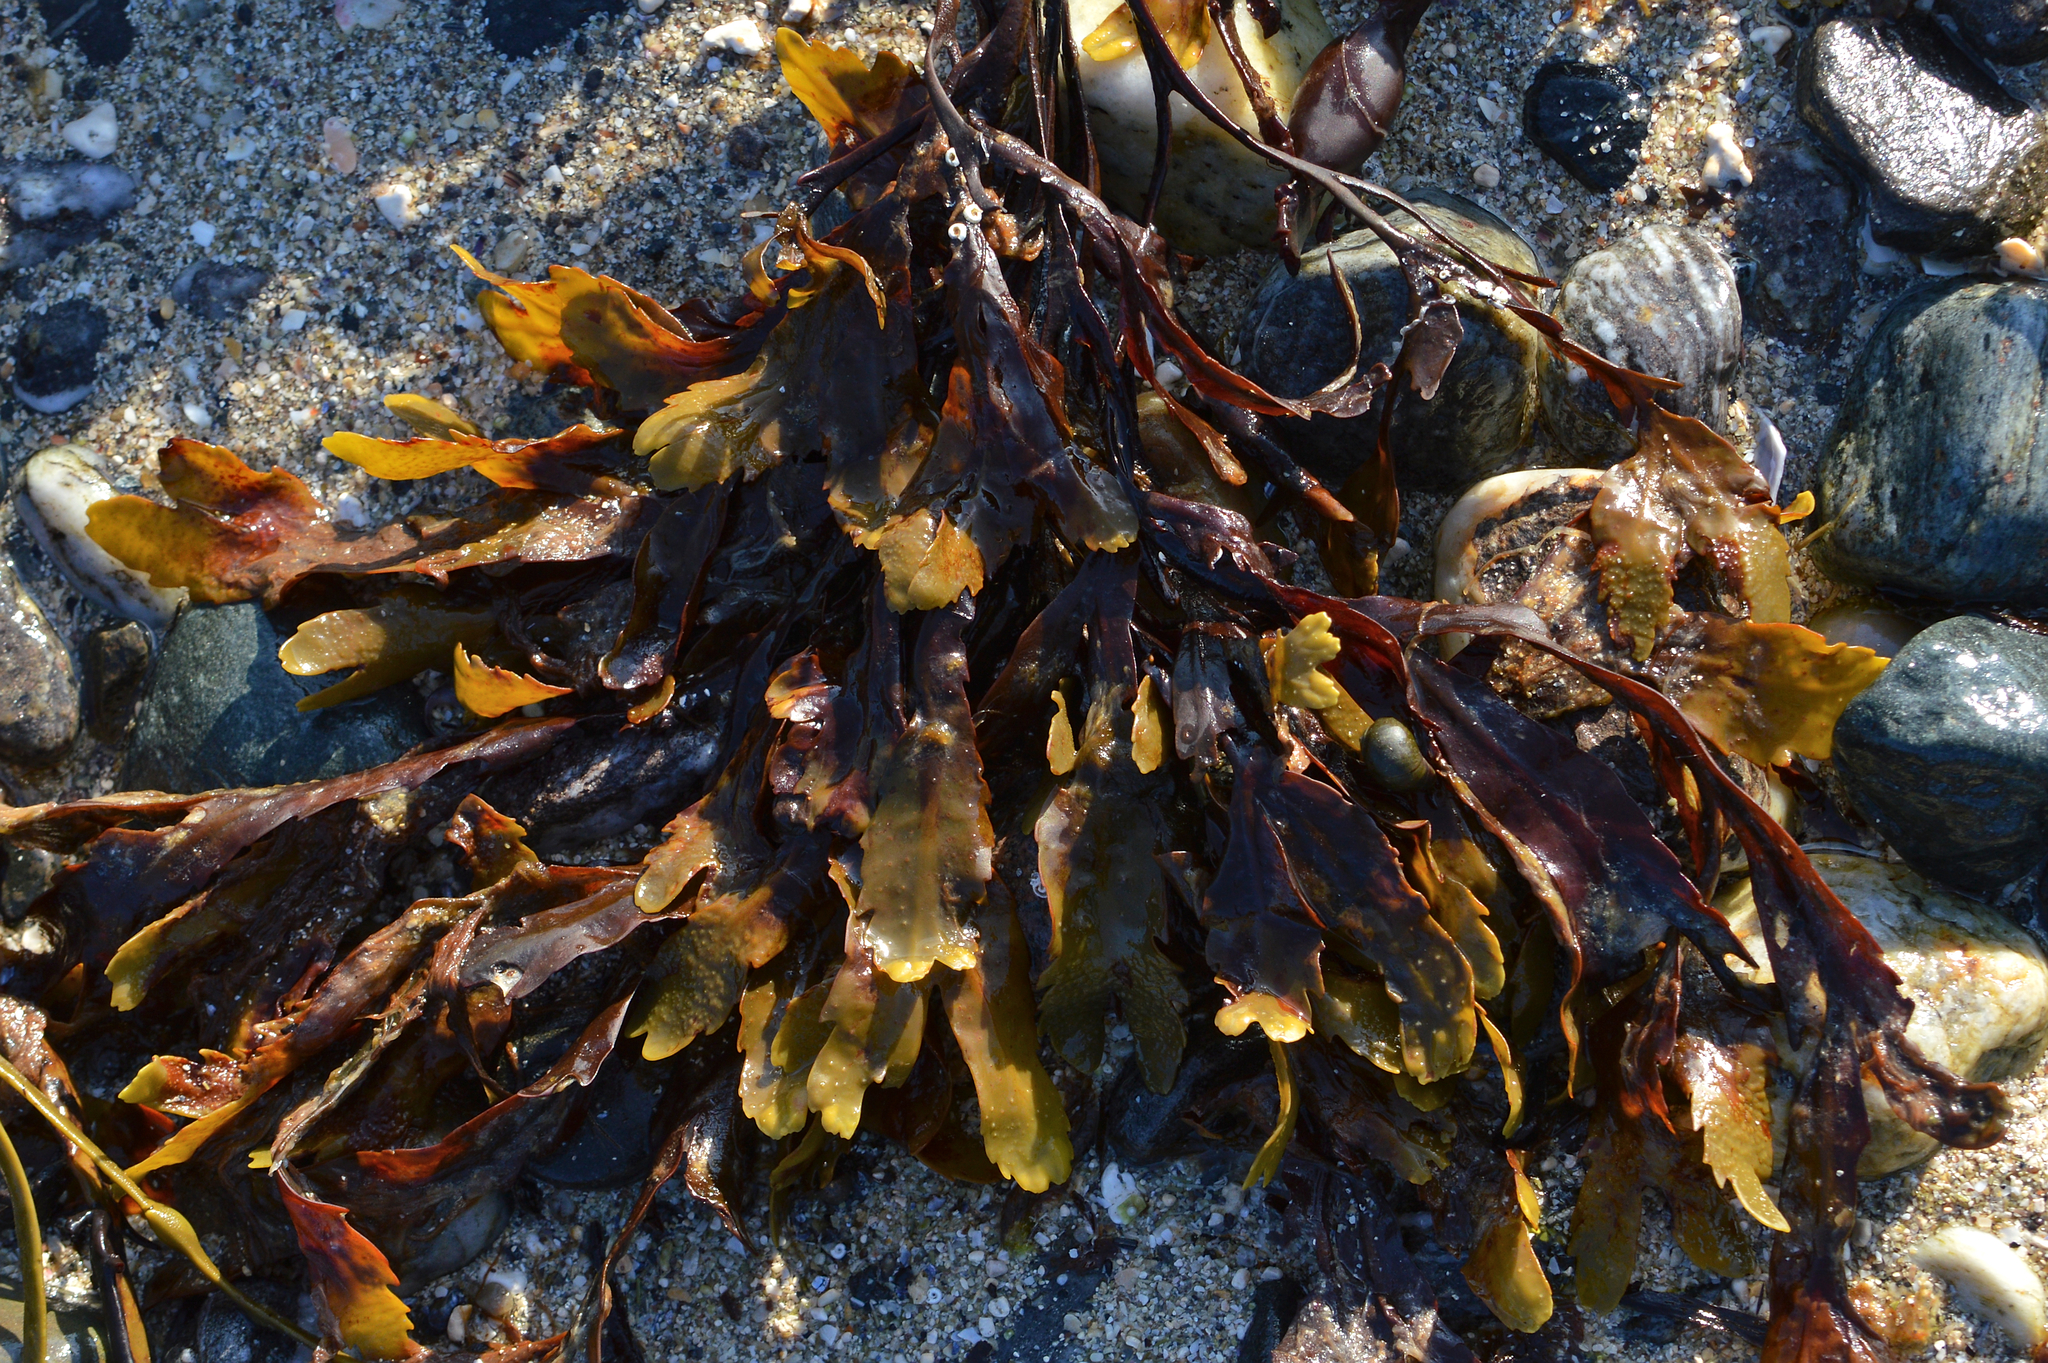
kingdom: Chromista
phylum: Ochrophyta
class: Phaeophyceae
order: Fucales
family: Fucaceae
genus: Fucus
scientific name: Fucus serratus
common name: Toothed wrack
